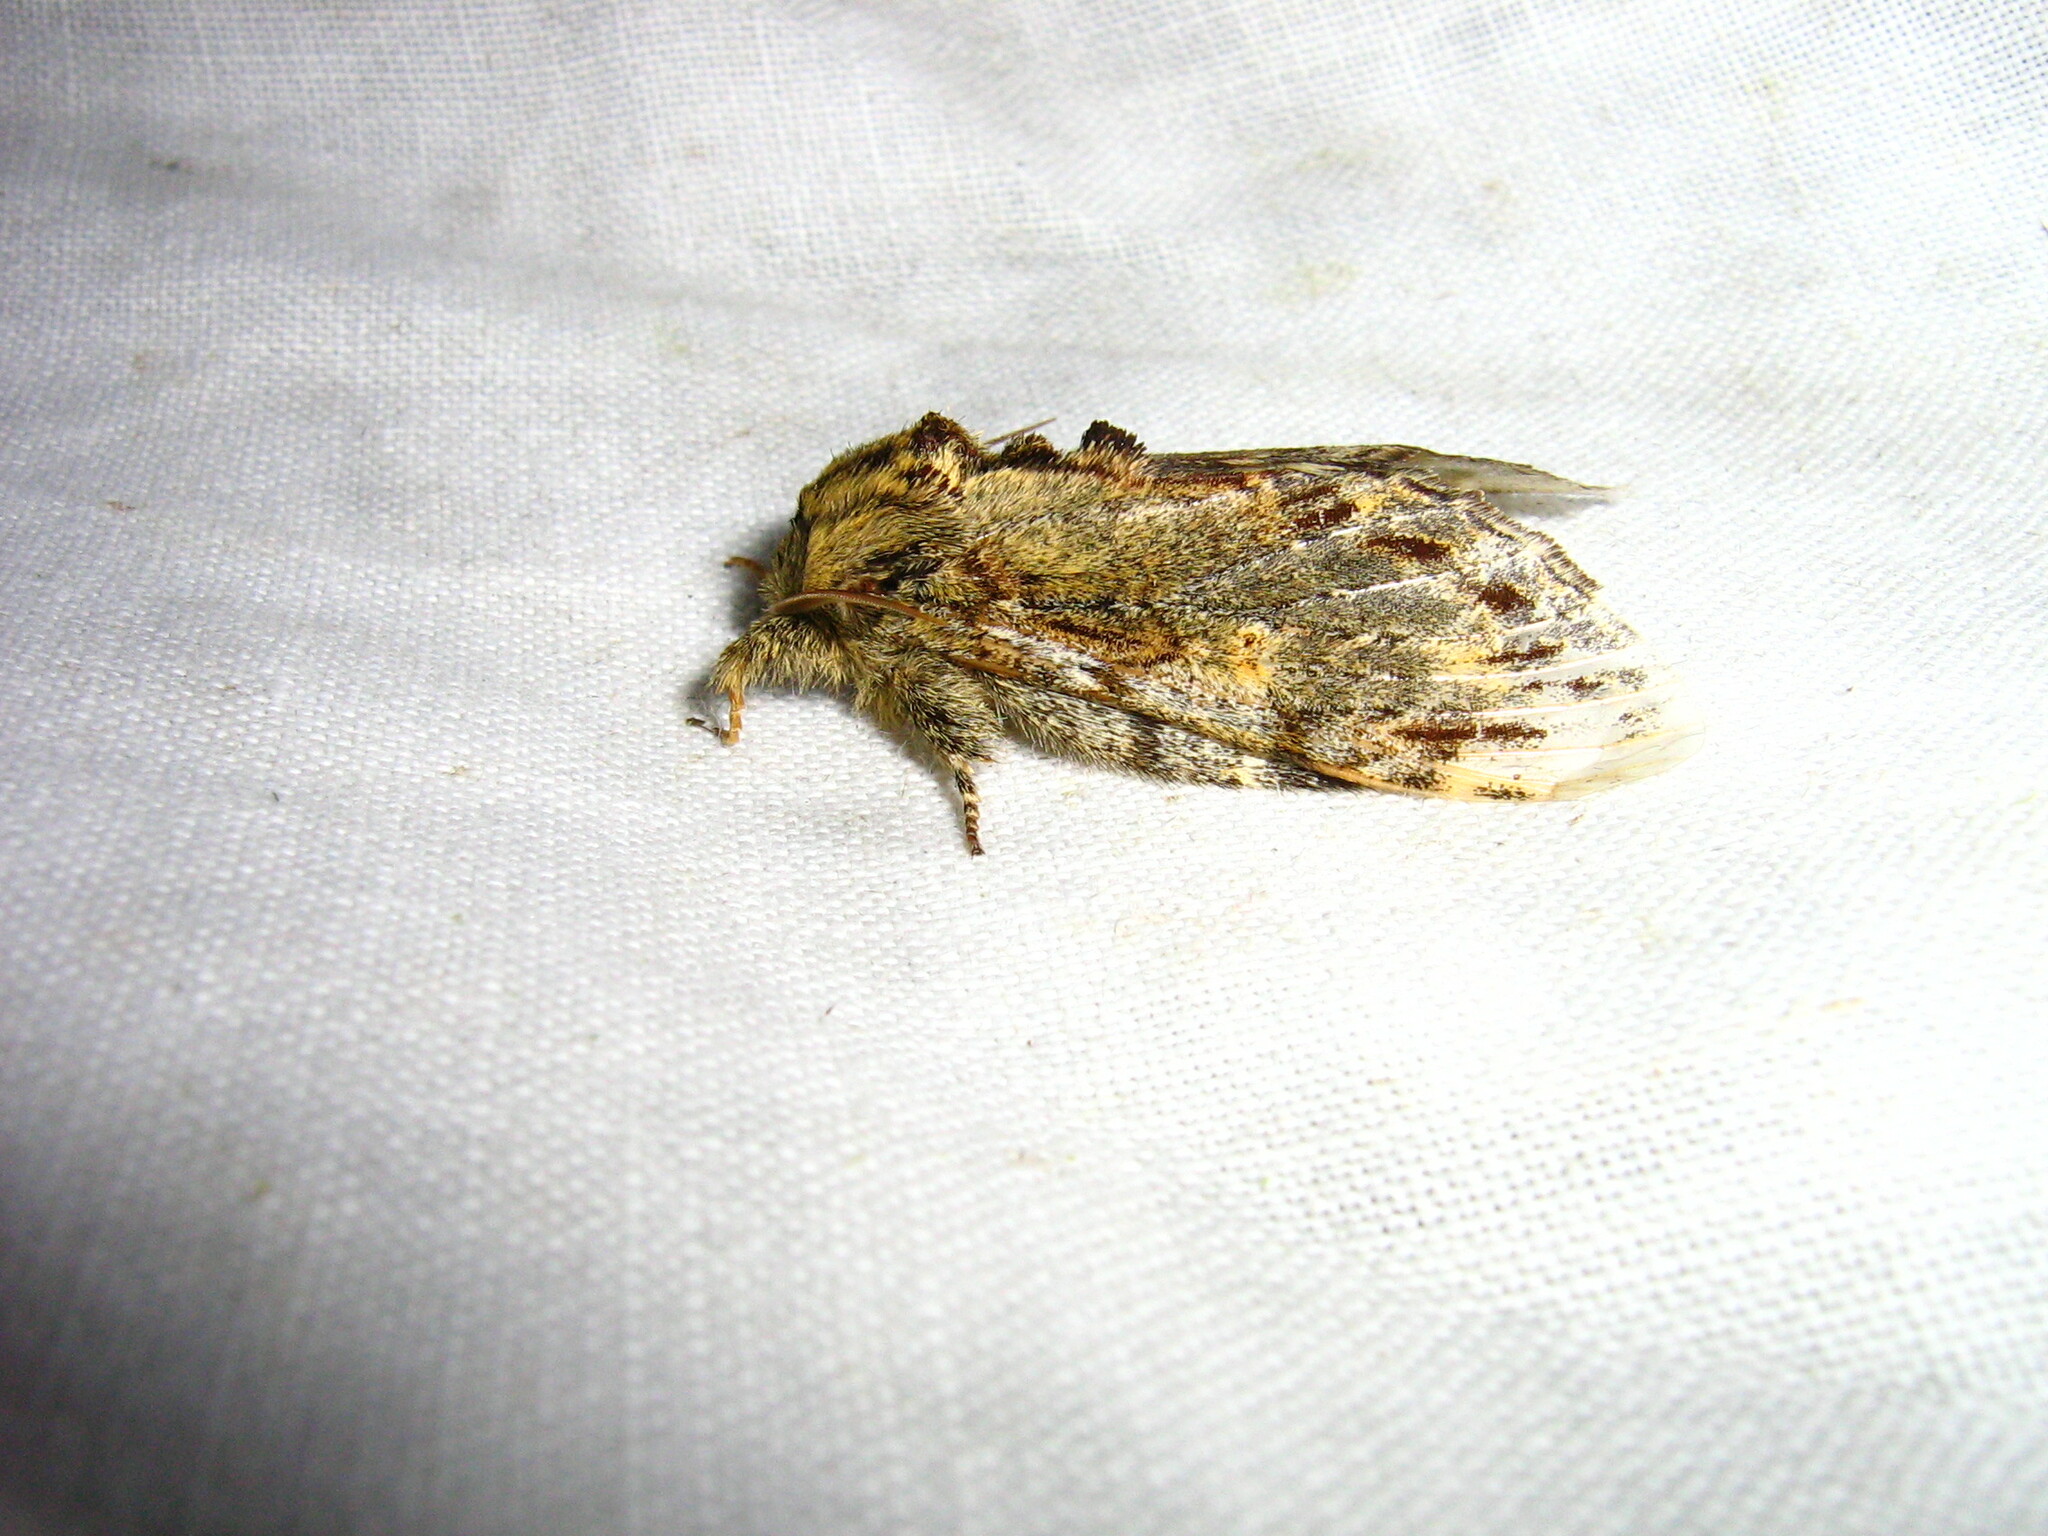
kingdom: Animalia
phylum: Arthropoda
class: Insecta
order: Lepidoptera
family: Notodontidae
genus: Peridea
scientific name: Peridea anceps
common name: Great prominent
